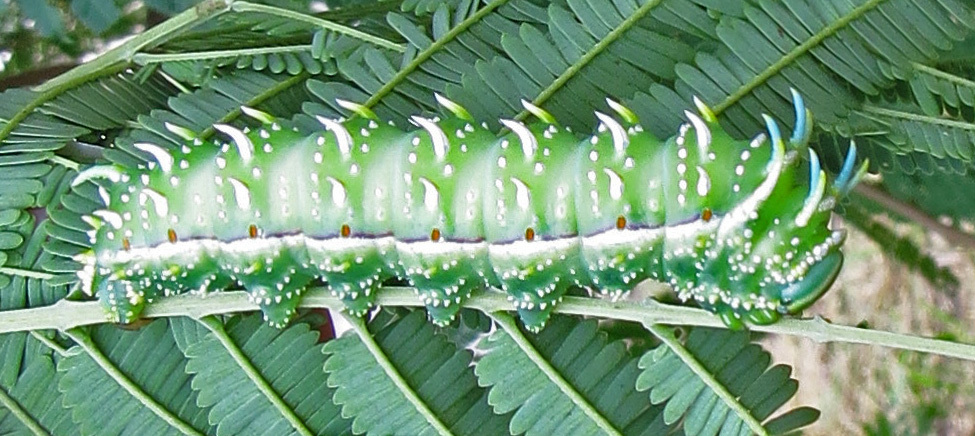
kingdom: Animalia
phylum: Arthropoda
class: Insecta
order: Lepidoptera
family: Saturniidae
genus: Syssphinx
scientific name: Syssphinx albolineata
